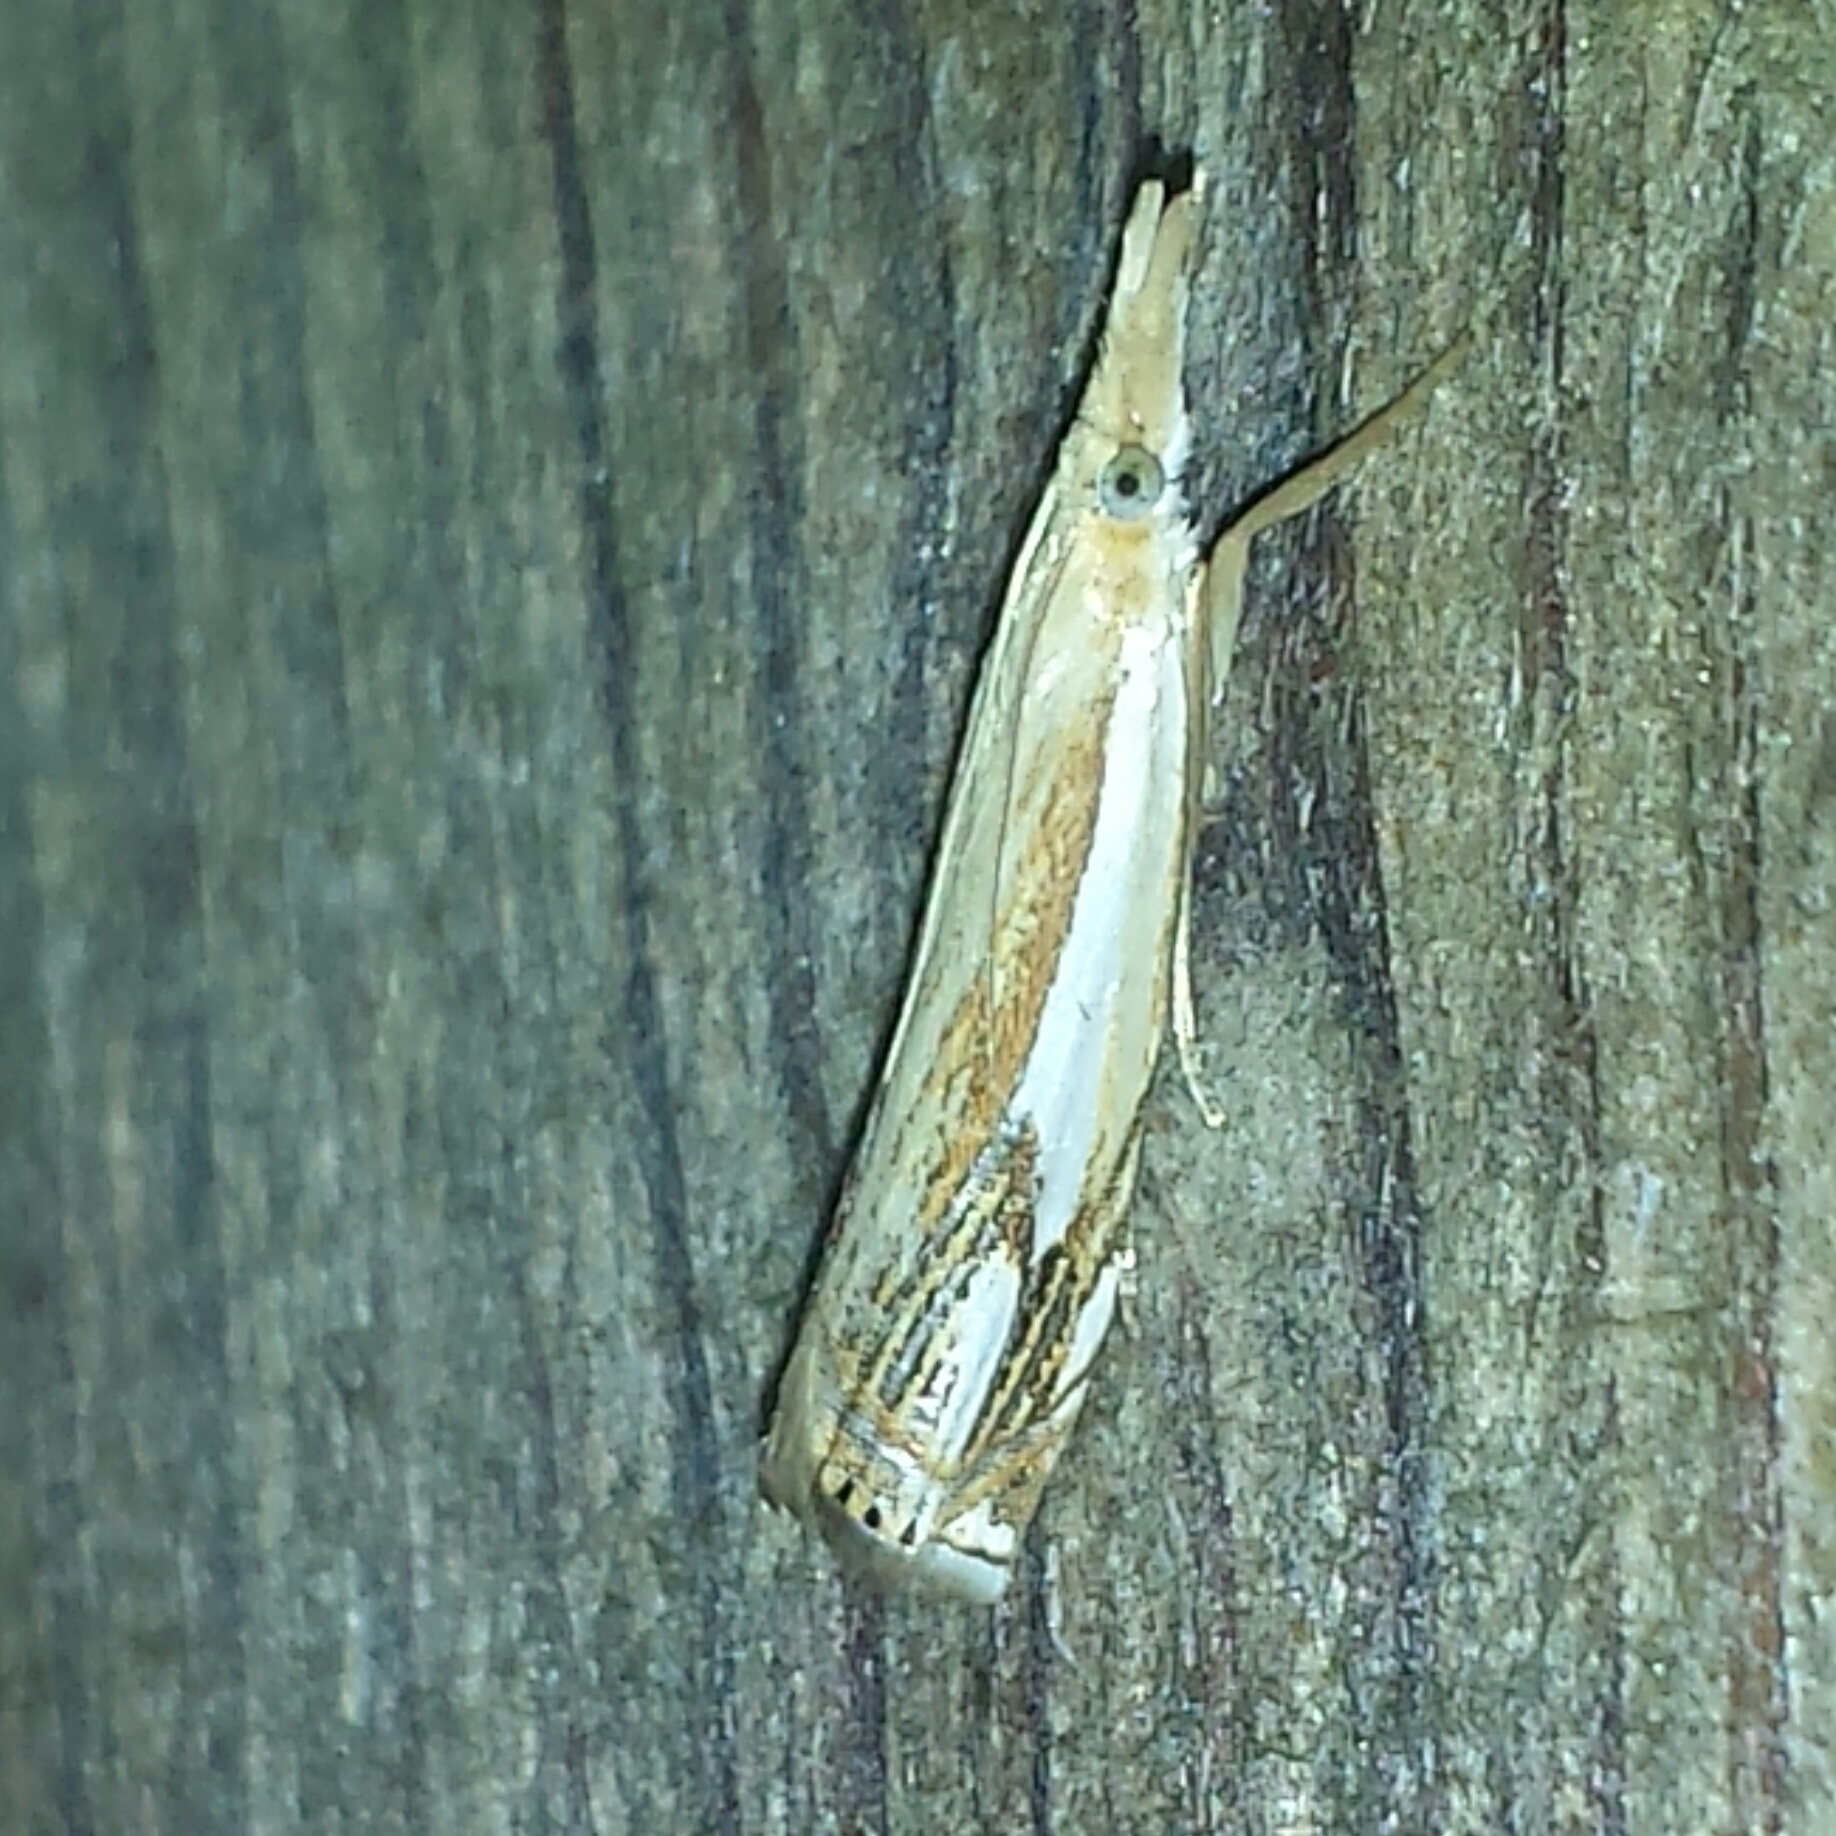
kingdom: Animalia
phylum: Arthropoda
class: Insecta
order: Lepidoptera
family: Crambidae
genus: Crambus
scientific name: Crambus agitatellus
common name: Double-banded grass-veneer
